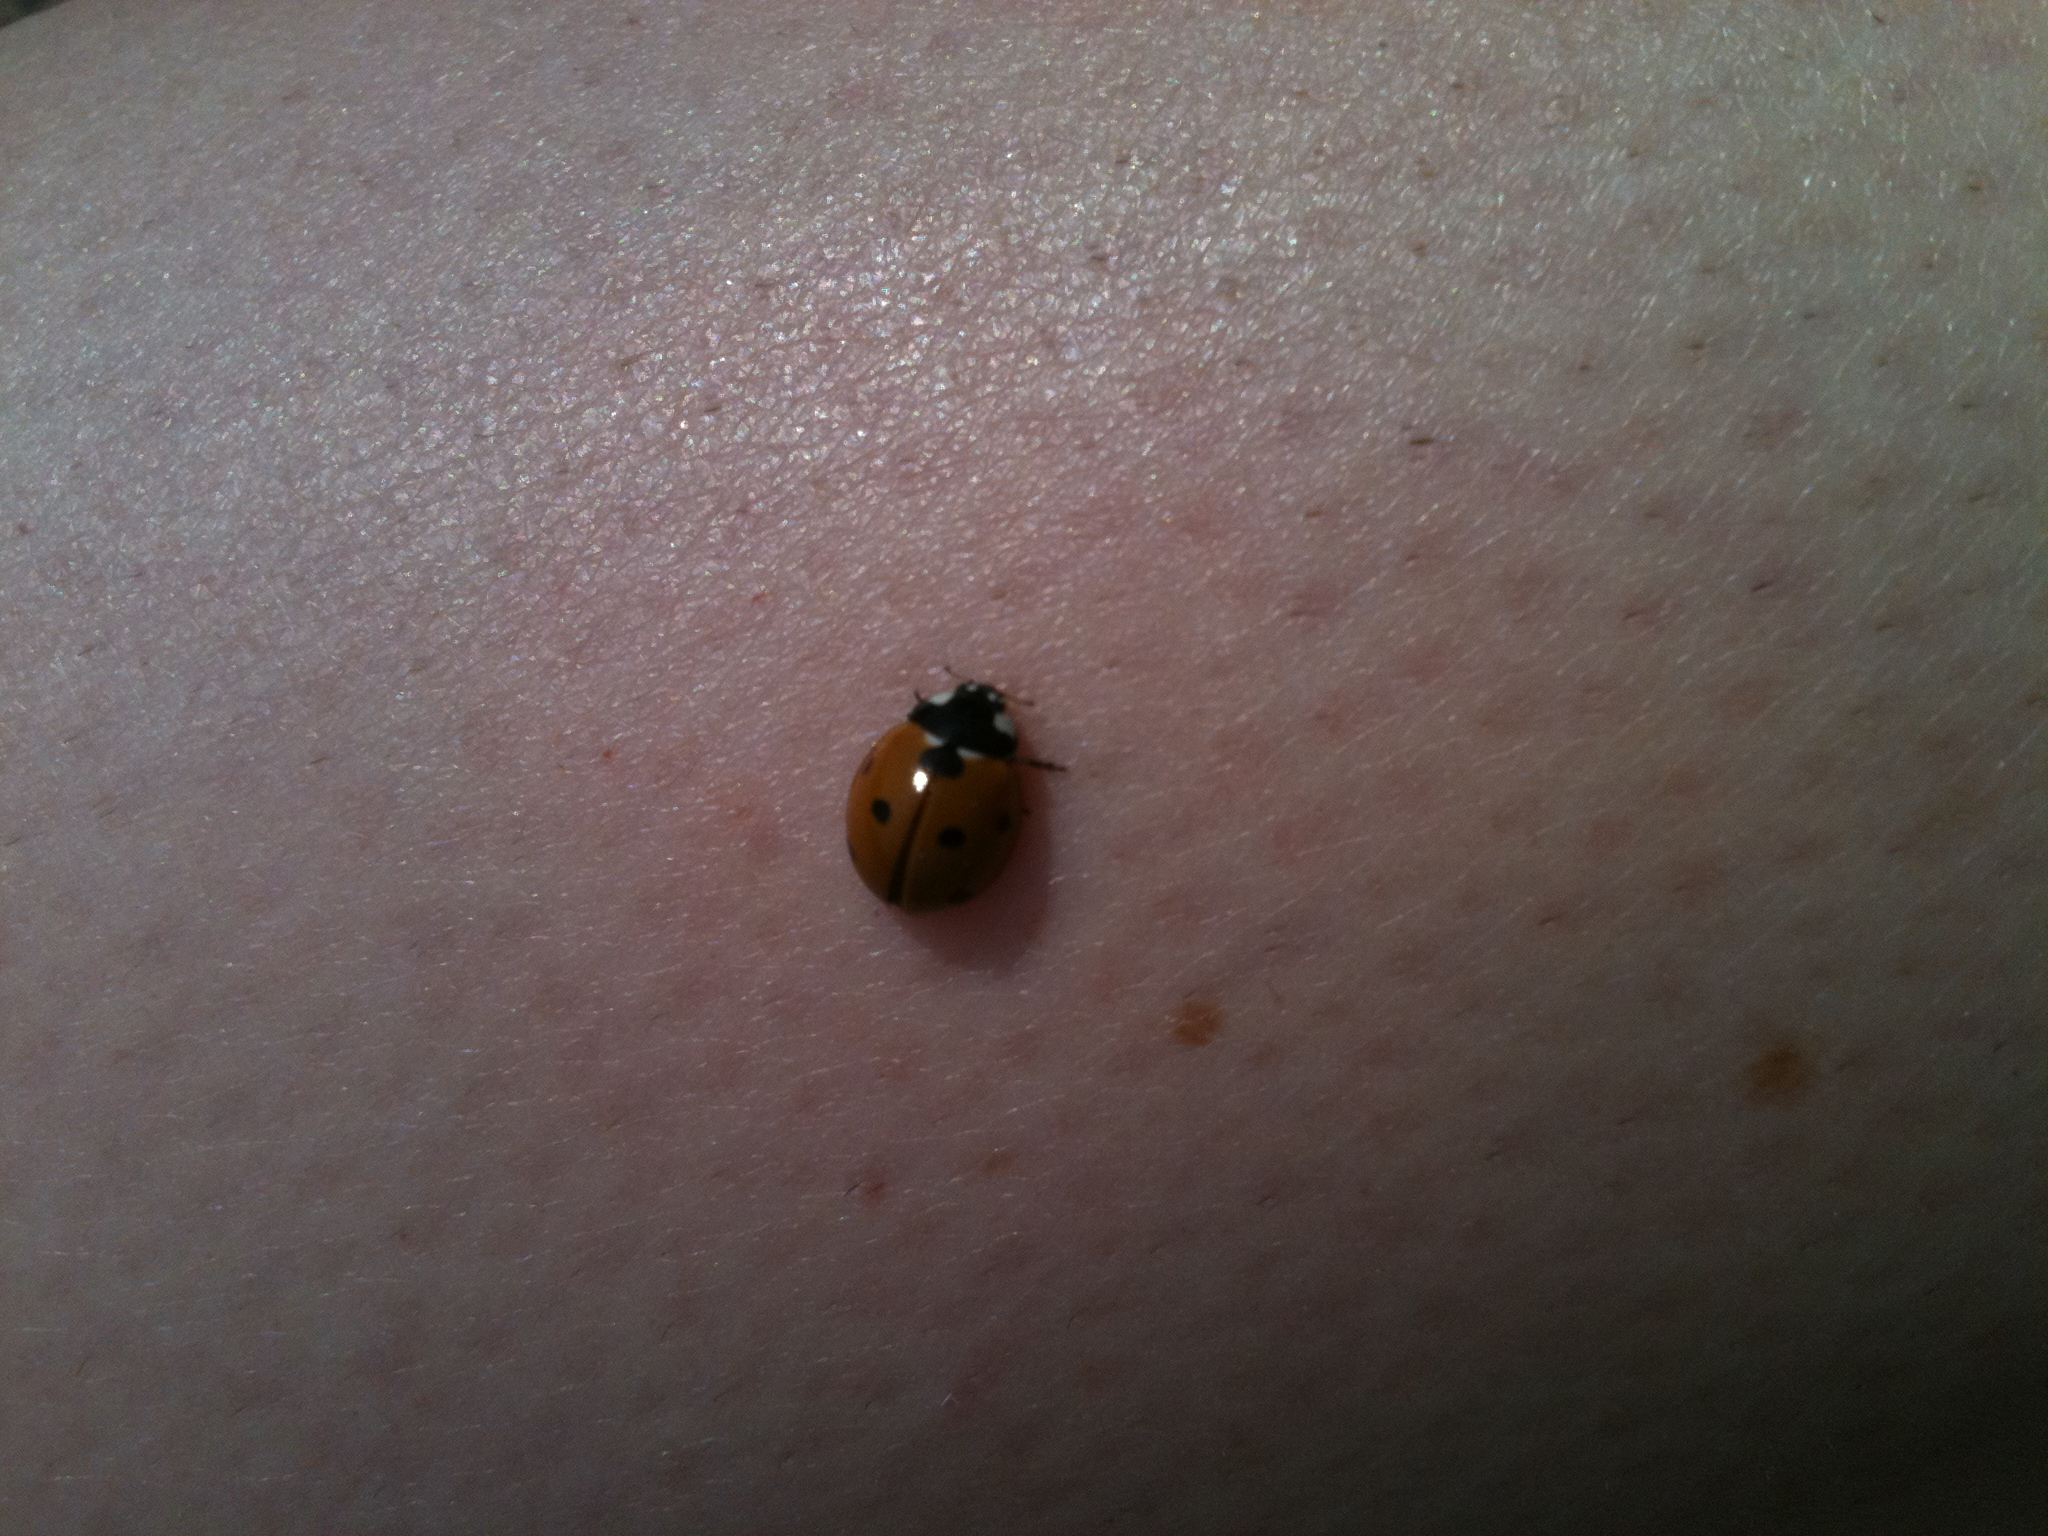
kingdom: Animalia
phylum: Arthropoda
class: Insecta
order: Coleoptera
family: Coccinellidae
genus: Coccinella
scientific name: Coccinella septempunctata
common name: Sevenspotted lady beetle
